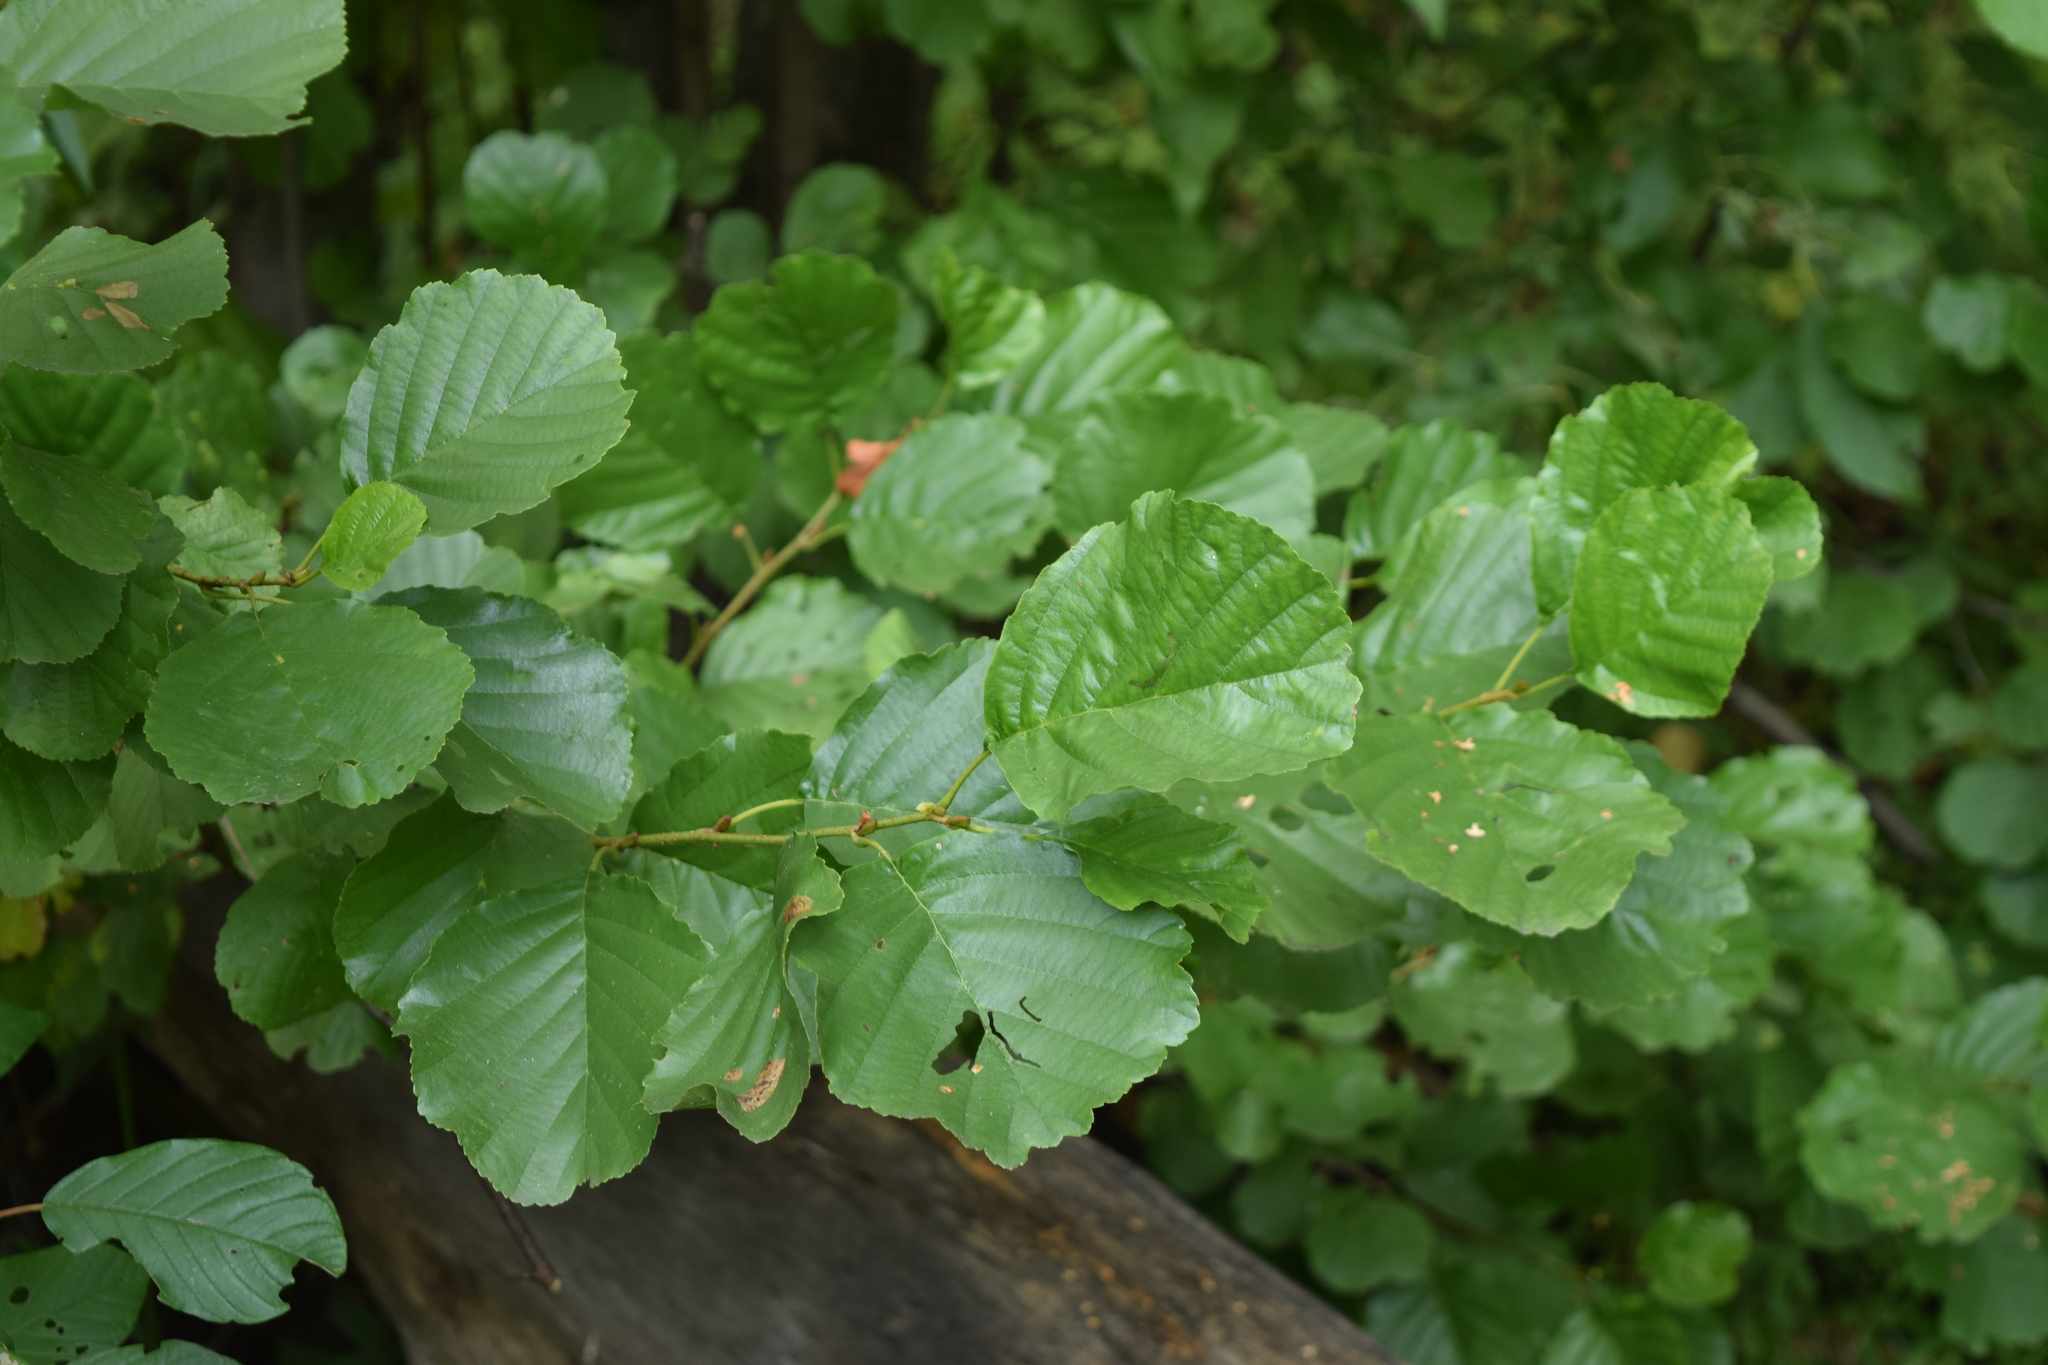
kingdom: Plantae
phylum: Tracheophyta
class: Magnoliopsida
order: Fagales
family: Betulaceae
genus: Alnus
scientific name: Alnus glutinosa
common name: Black alder
